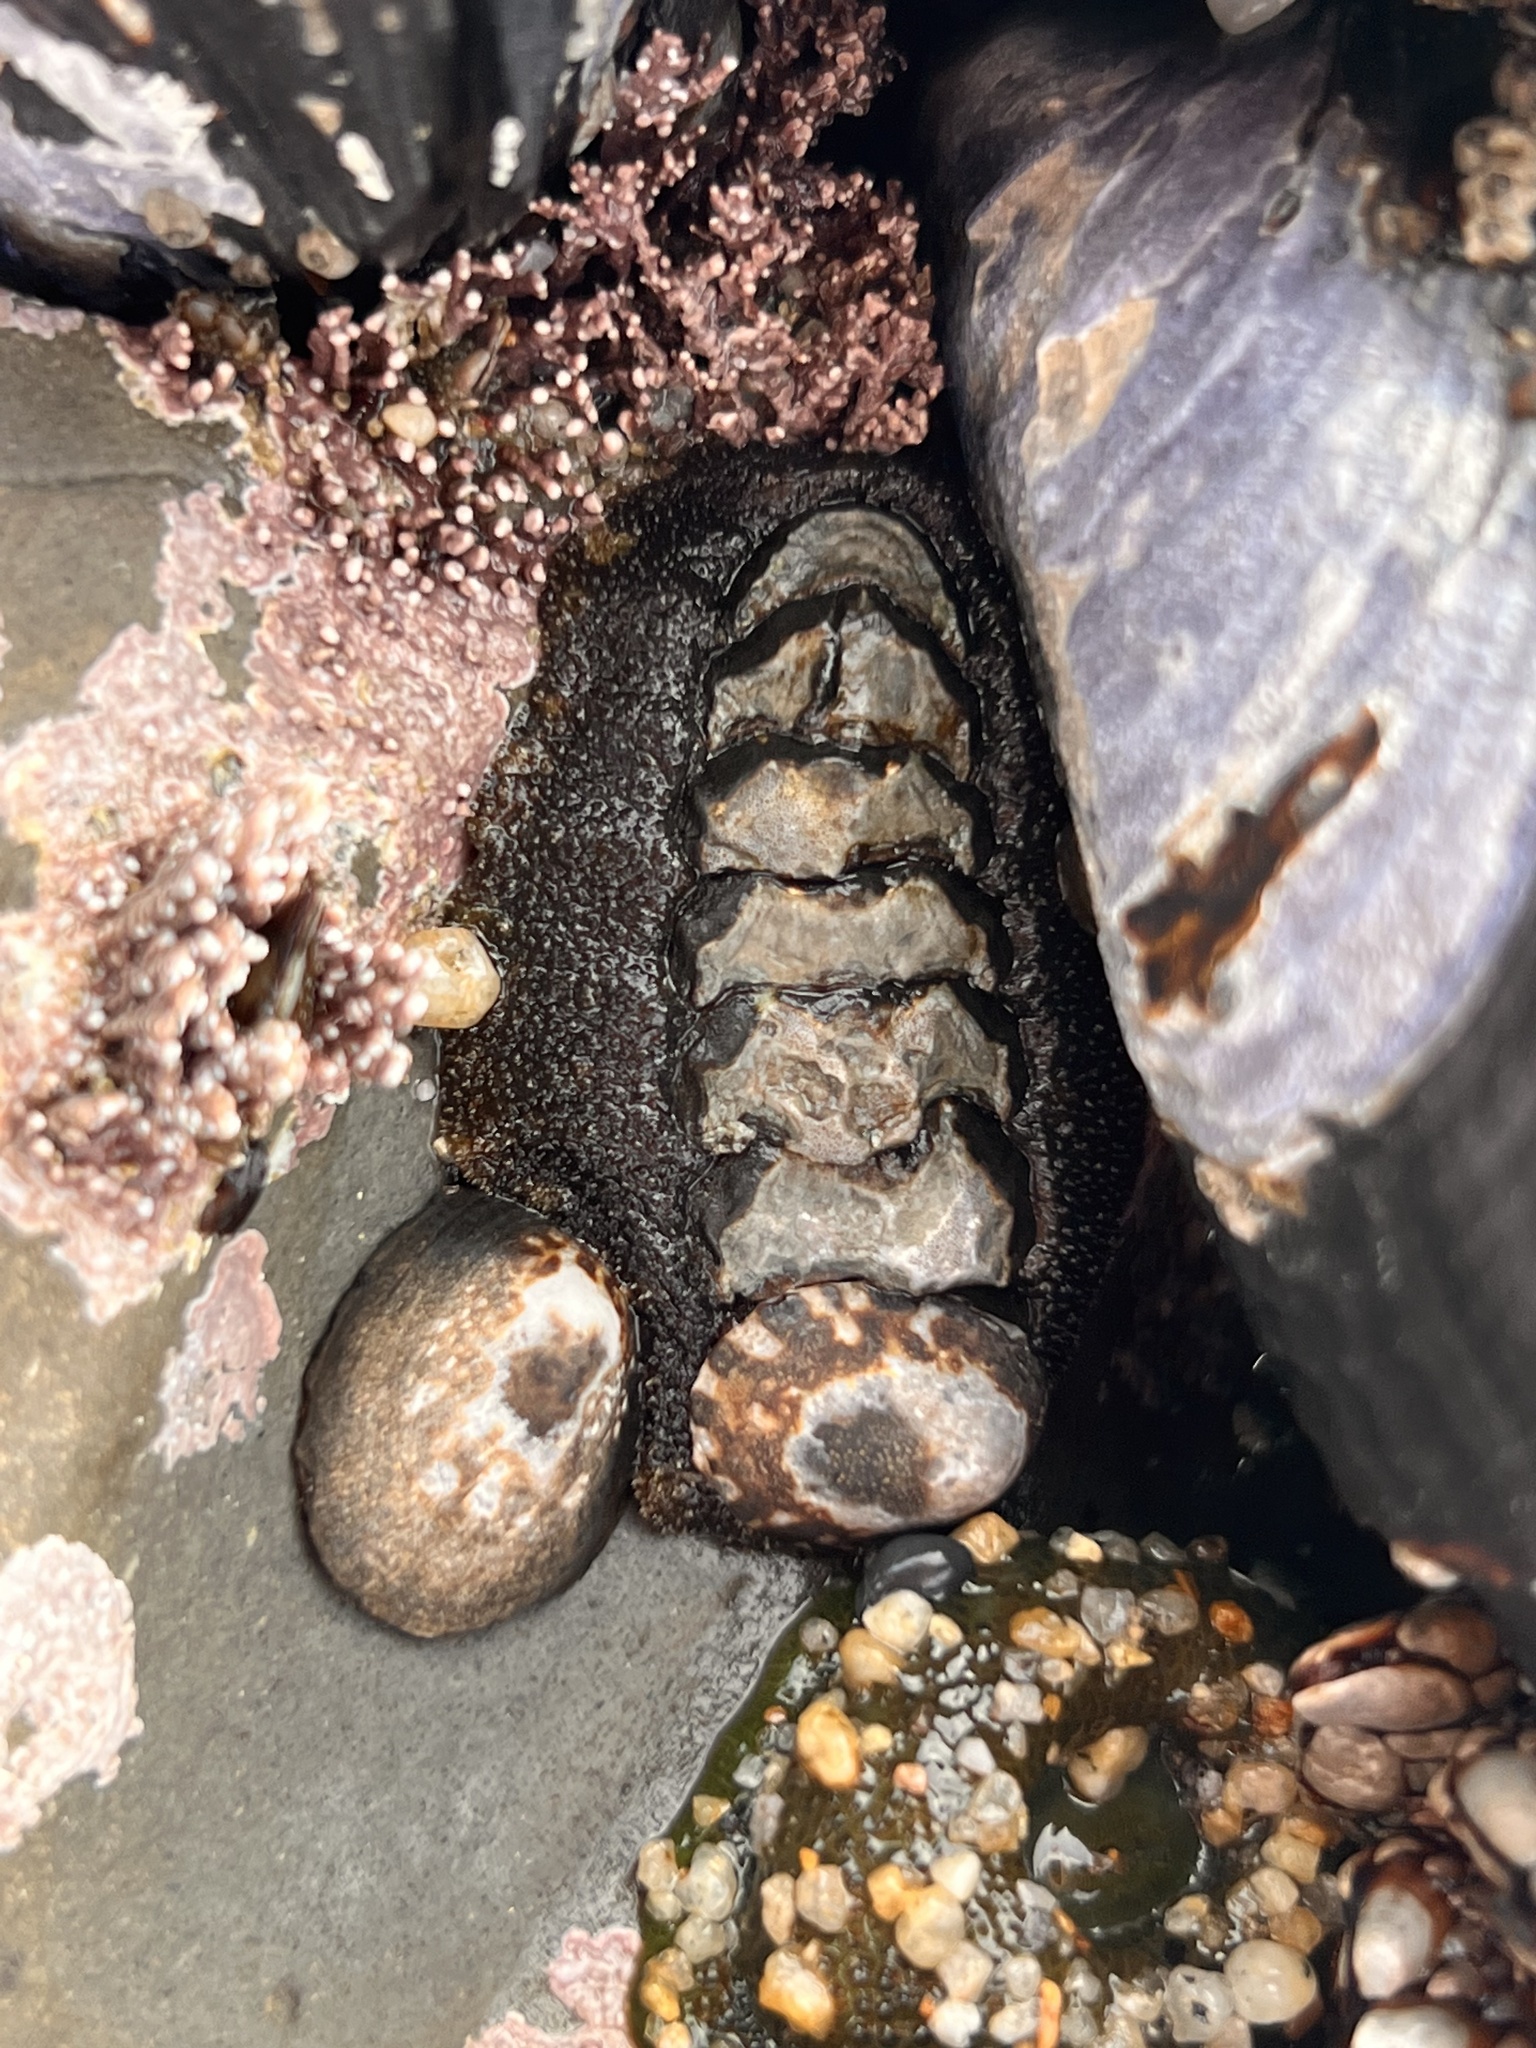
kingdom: Animalia
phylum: Mollusca
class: Polyplacophora
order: Chitonida
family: Mopaliidae
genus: Mopalia
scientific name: Mopalia muscosa
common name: Mossy chiton
